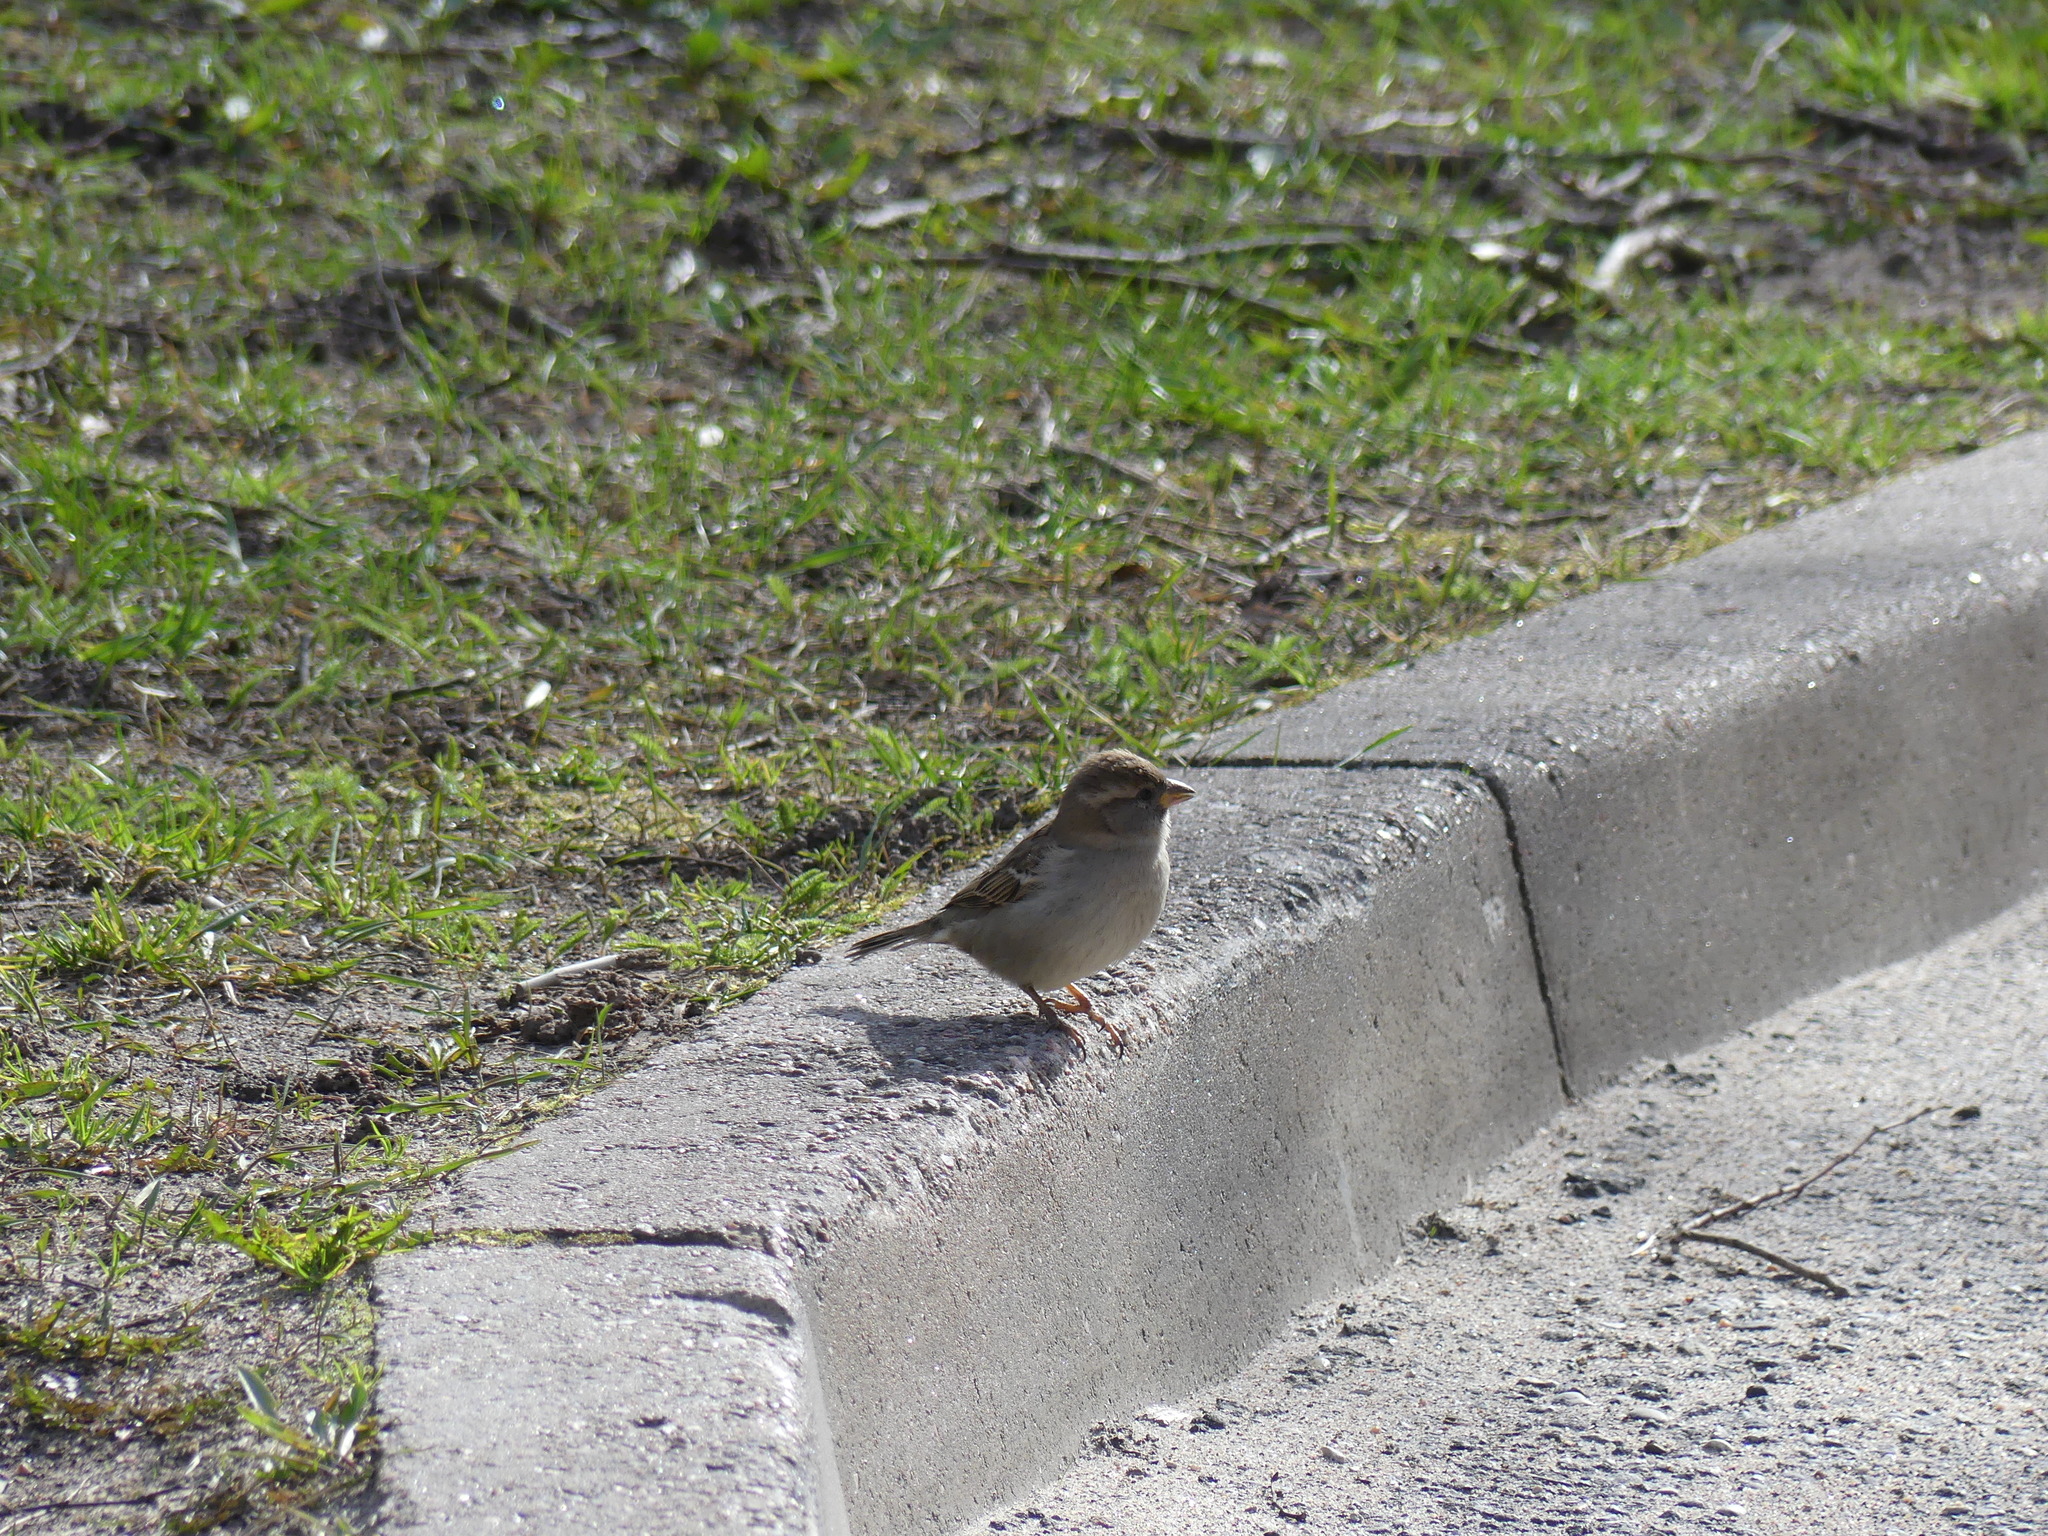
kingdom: Animalia
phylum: Chordata
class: Aves
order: Passeriformes
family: Passeridae
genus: Passer
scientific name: Passer domesticus
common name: House sparrow
